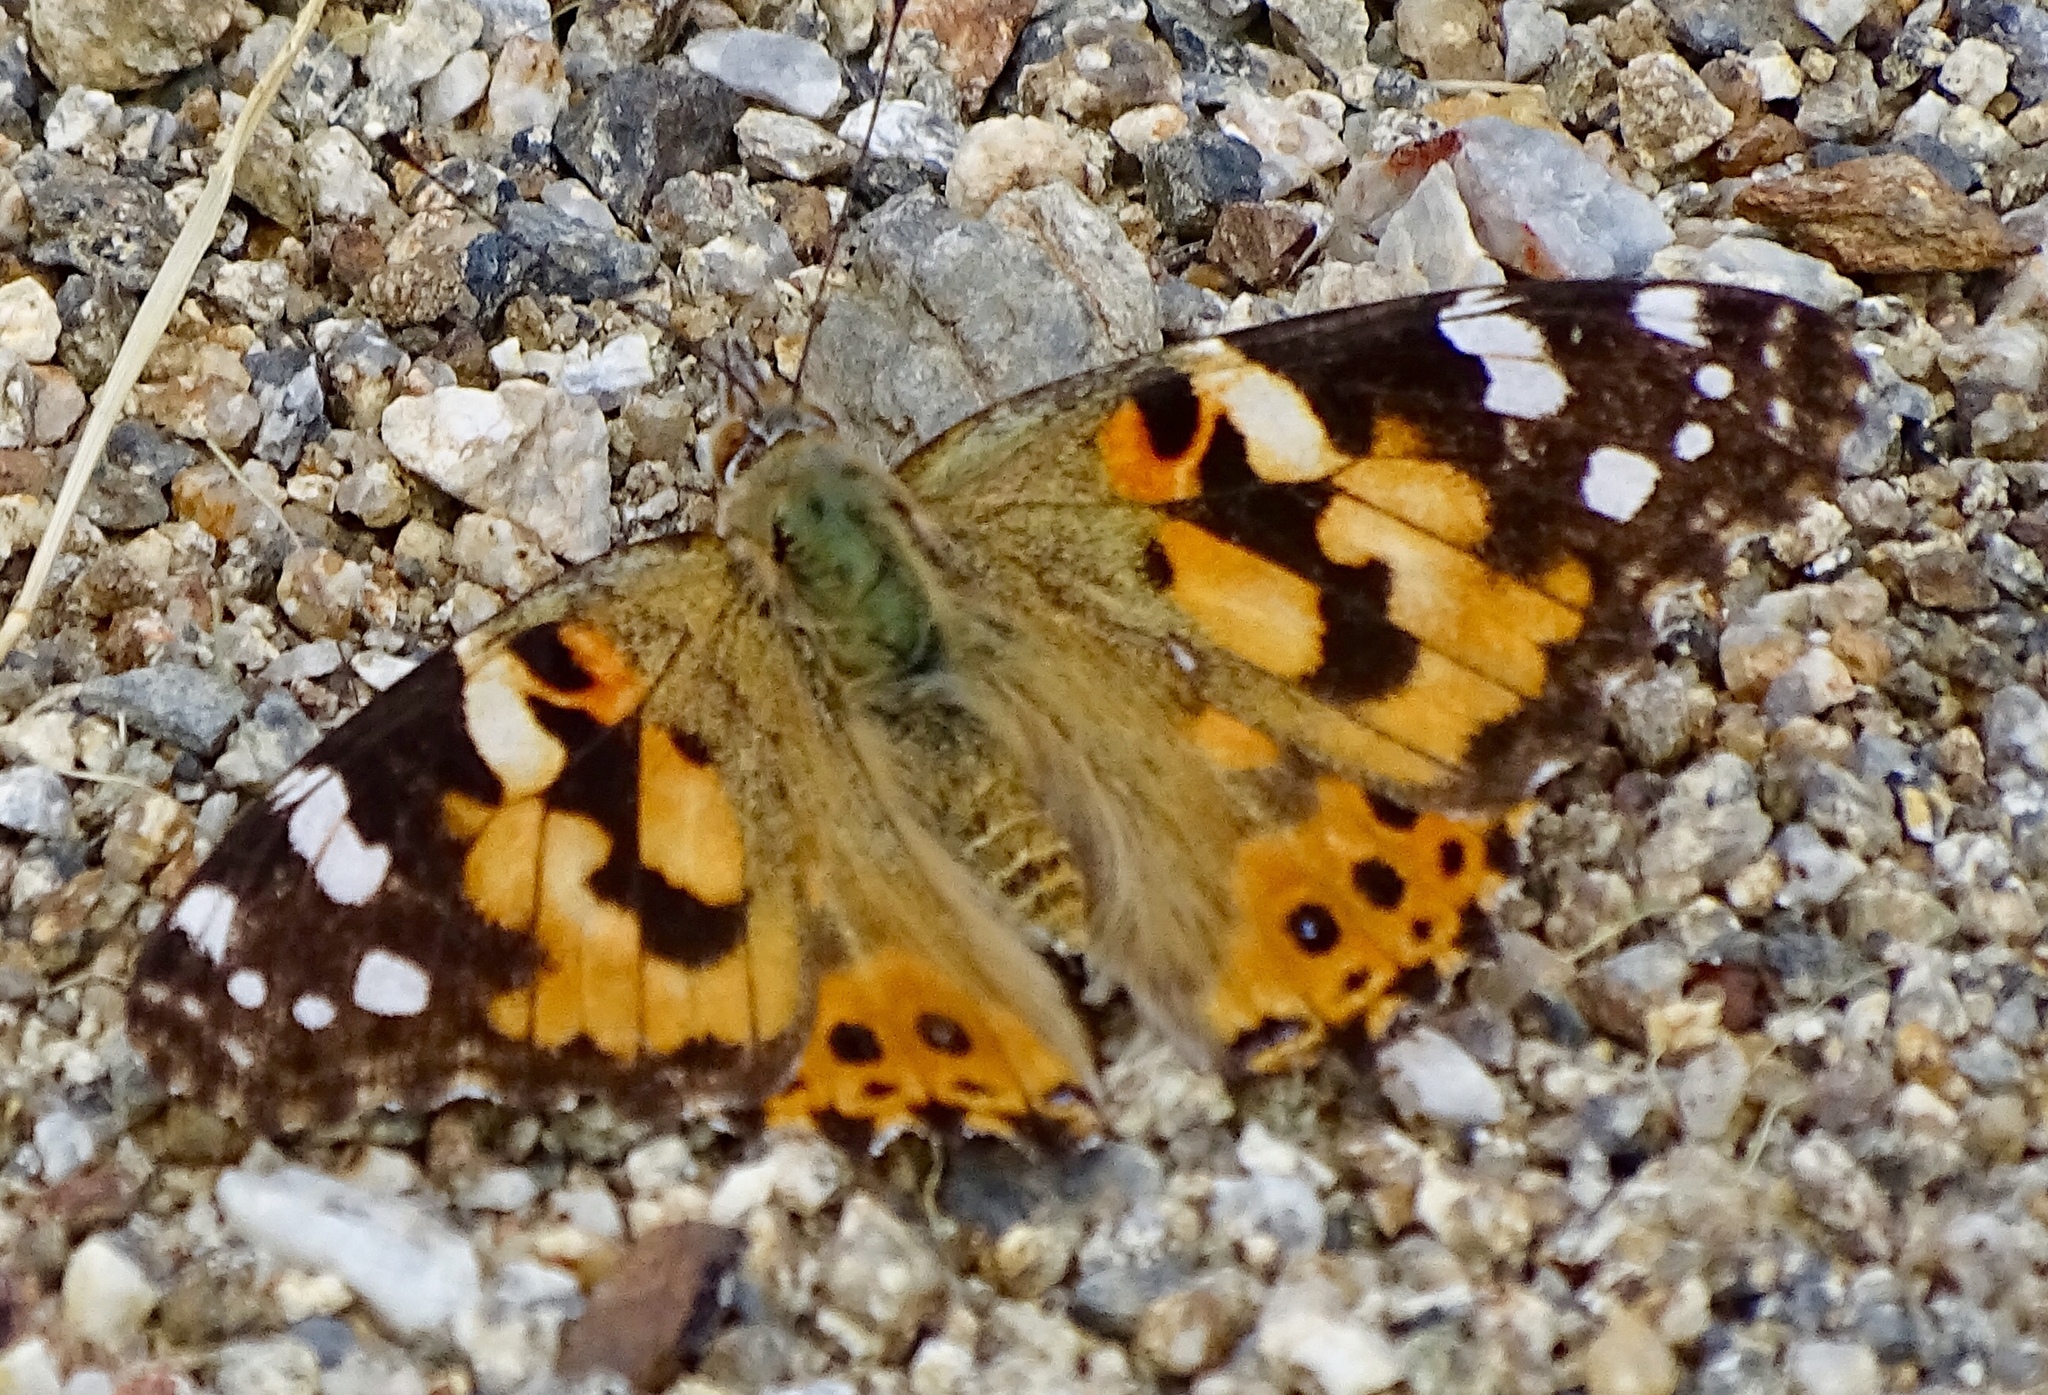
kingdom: Animalia
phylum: Arthropoda
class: Insecta
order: Lepidoptera
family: Nymphalidae
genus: Vanessa
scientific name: Vanessa cardui
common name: Painted lady
